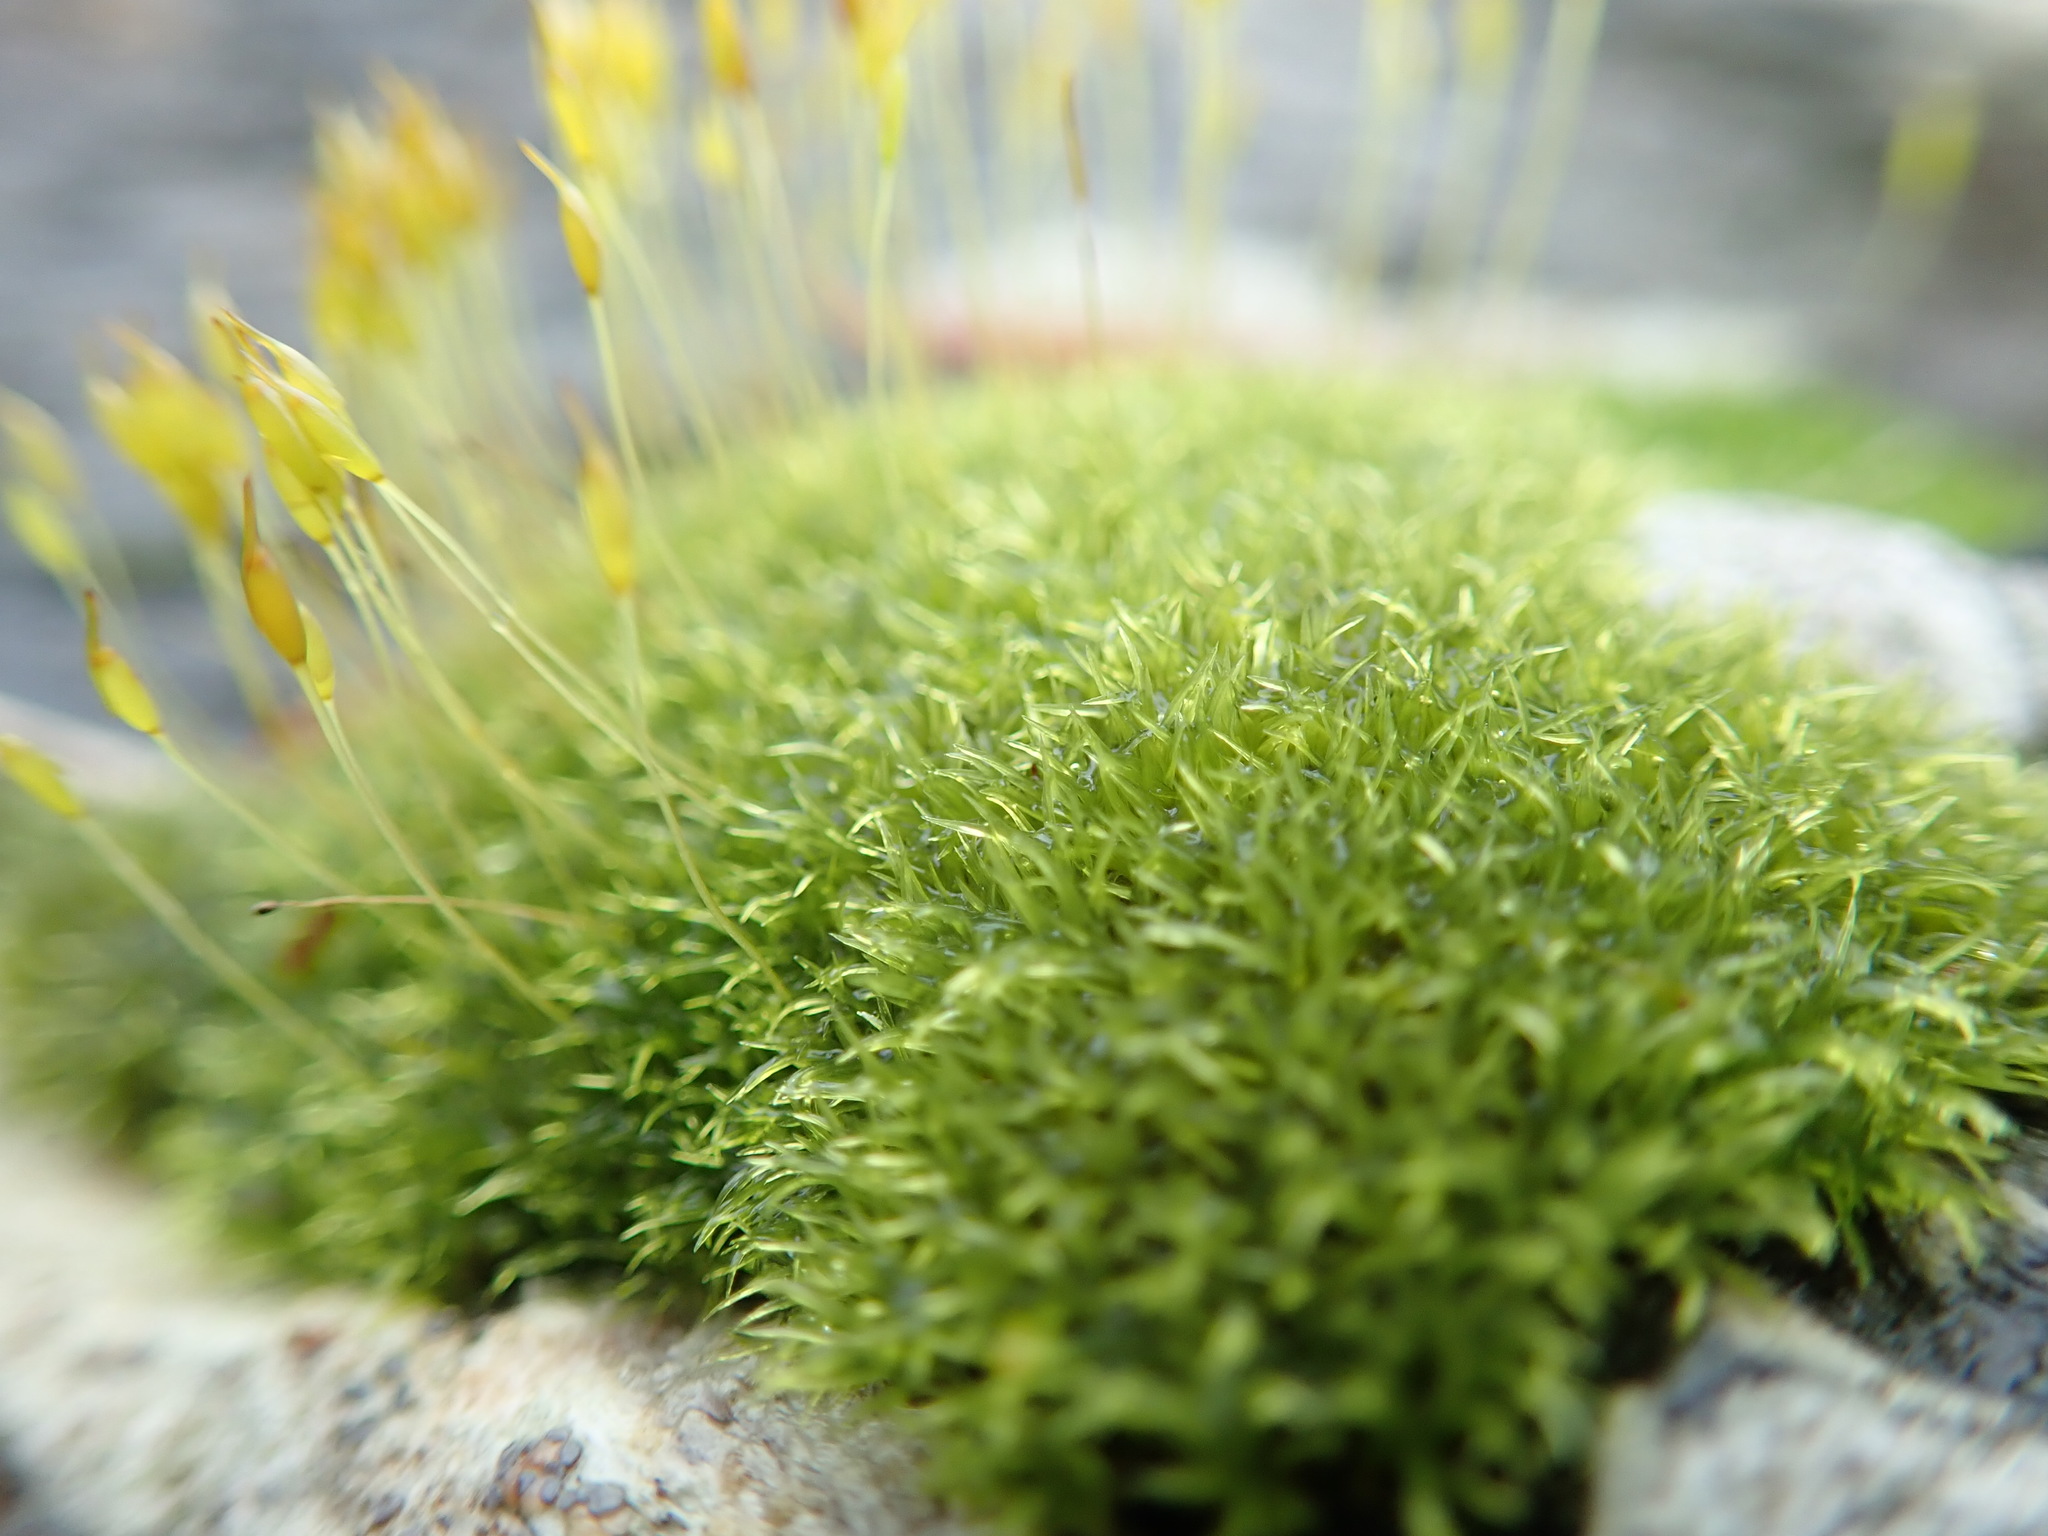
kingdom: Plantae
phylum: Bryophyta
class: Bryopsida
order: Dicranales
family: Rhabdoweisiaceae
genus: Dicranoweisia
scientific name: Dicranoweisia cirrata
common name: Common pincushion
